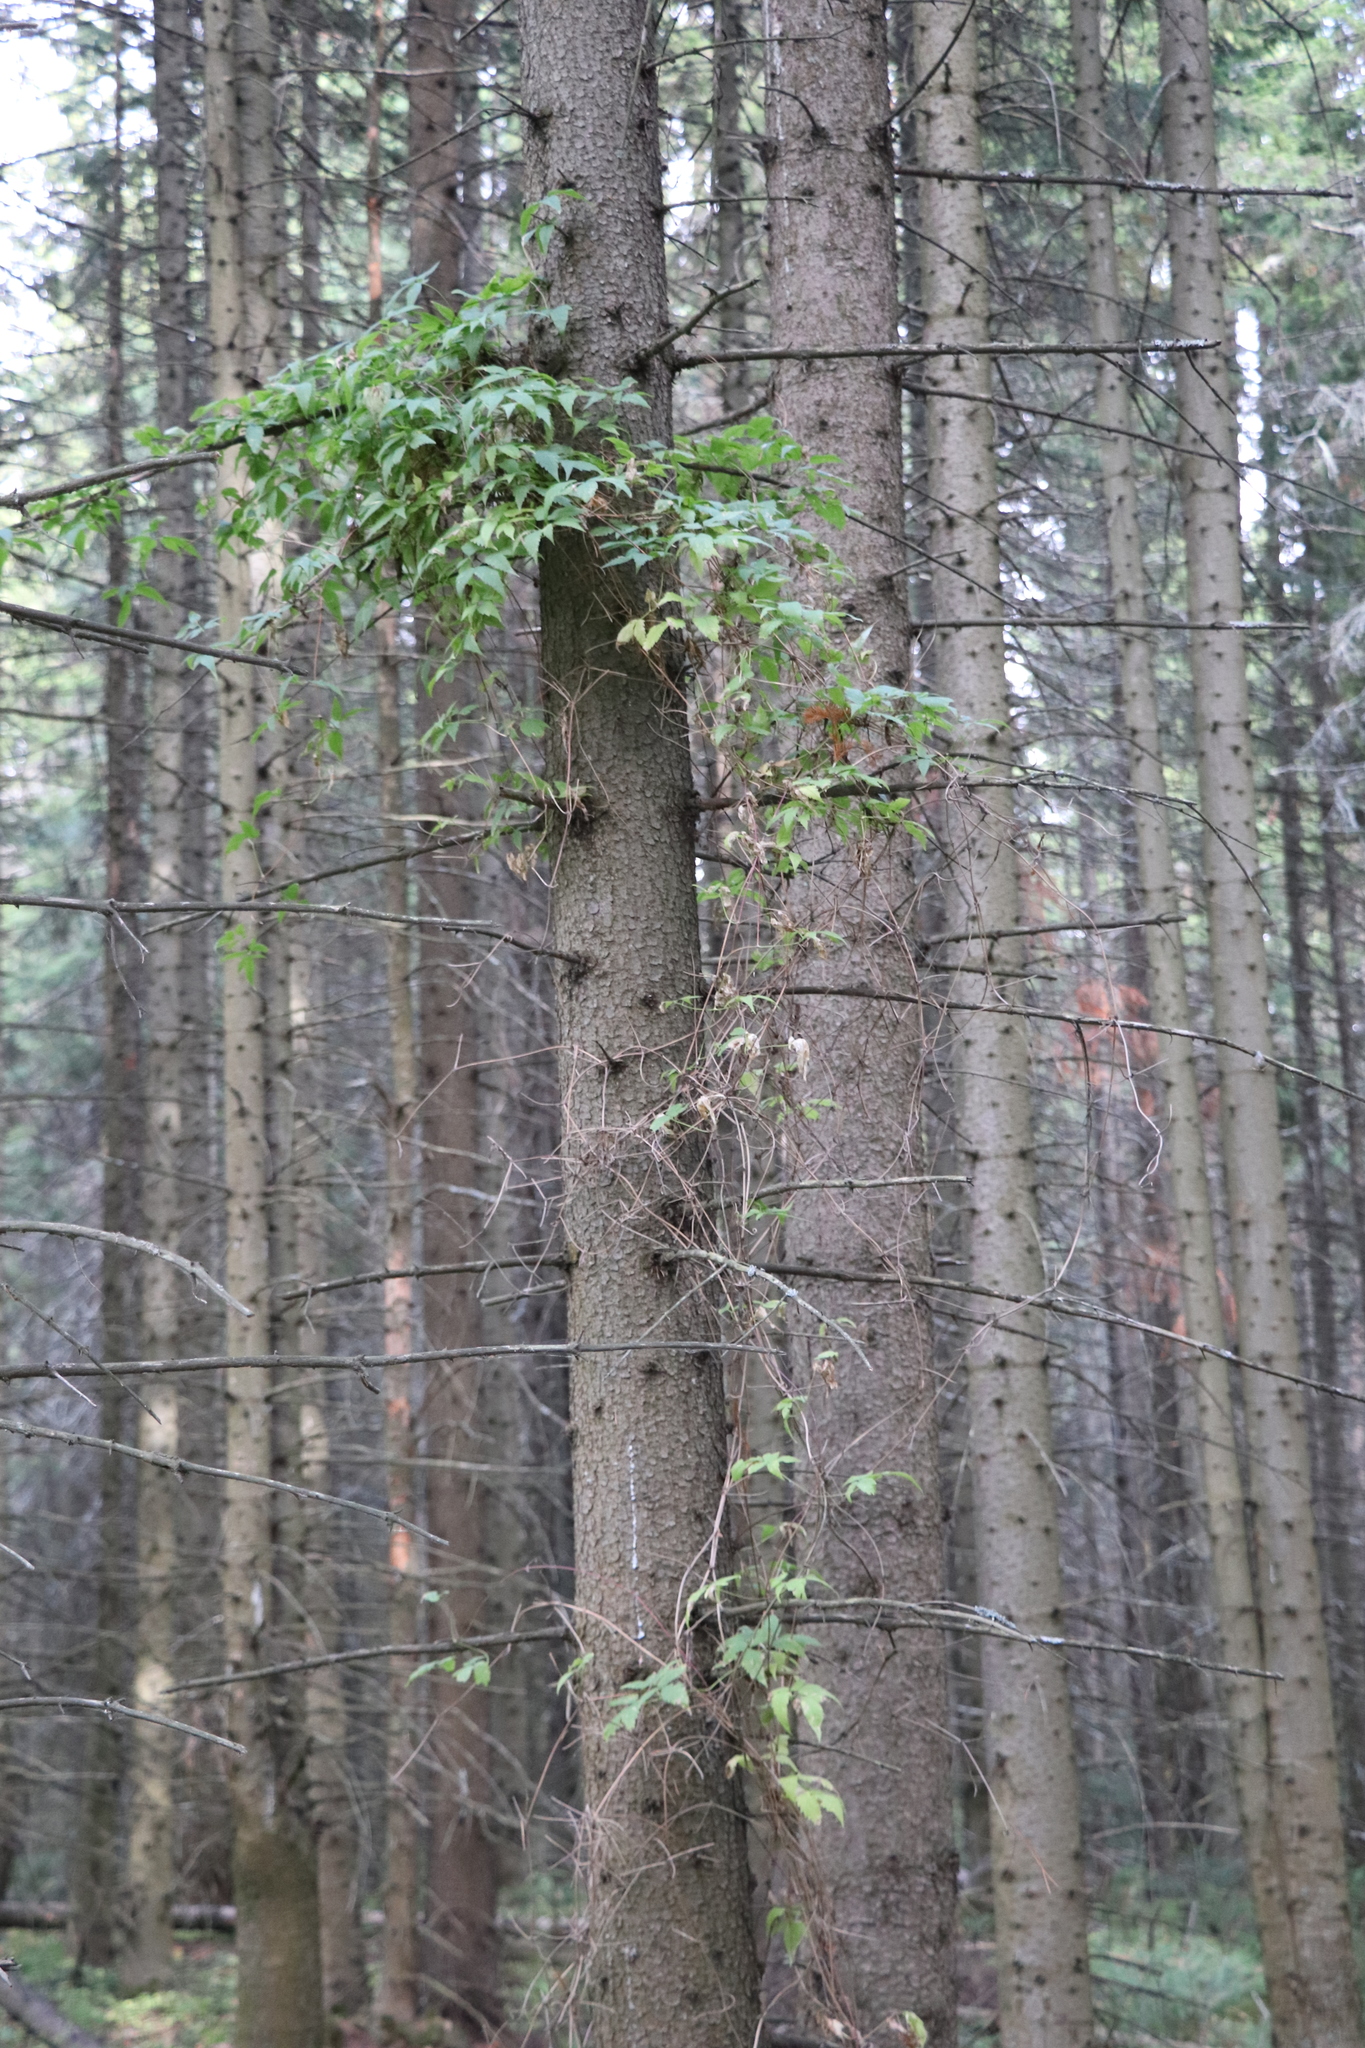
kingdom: Plantae
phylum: Tracheophyta
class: Magnoliopsida
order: Ranunculales
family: Ranunculaceae
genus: Clematis
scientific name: Clematis sibirica
